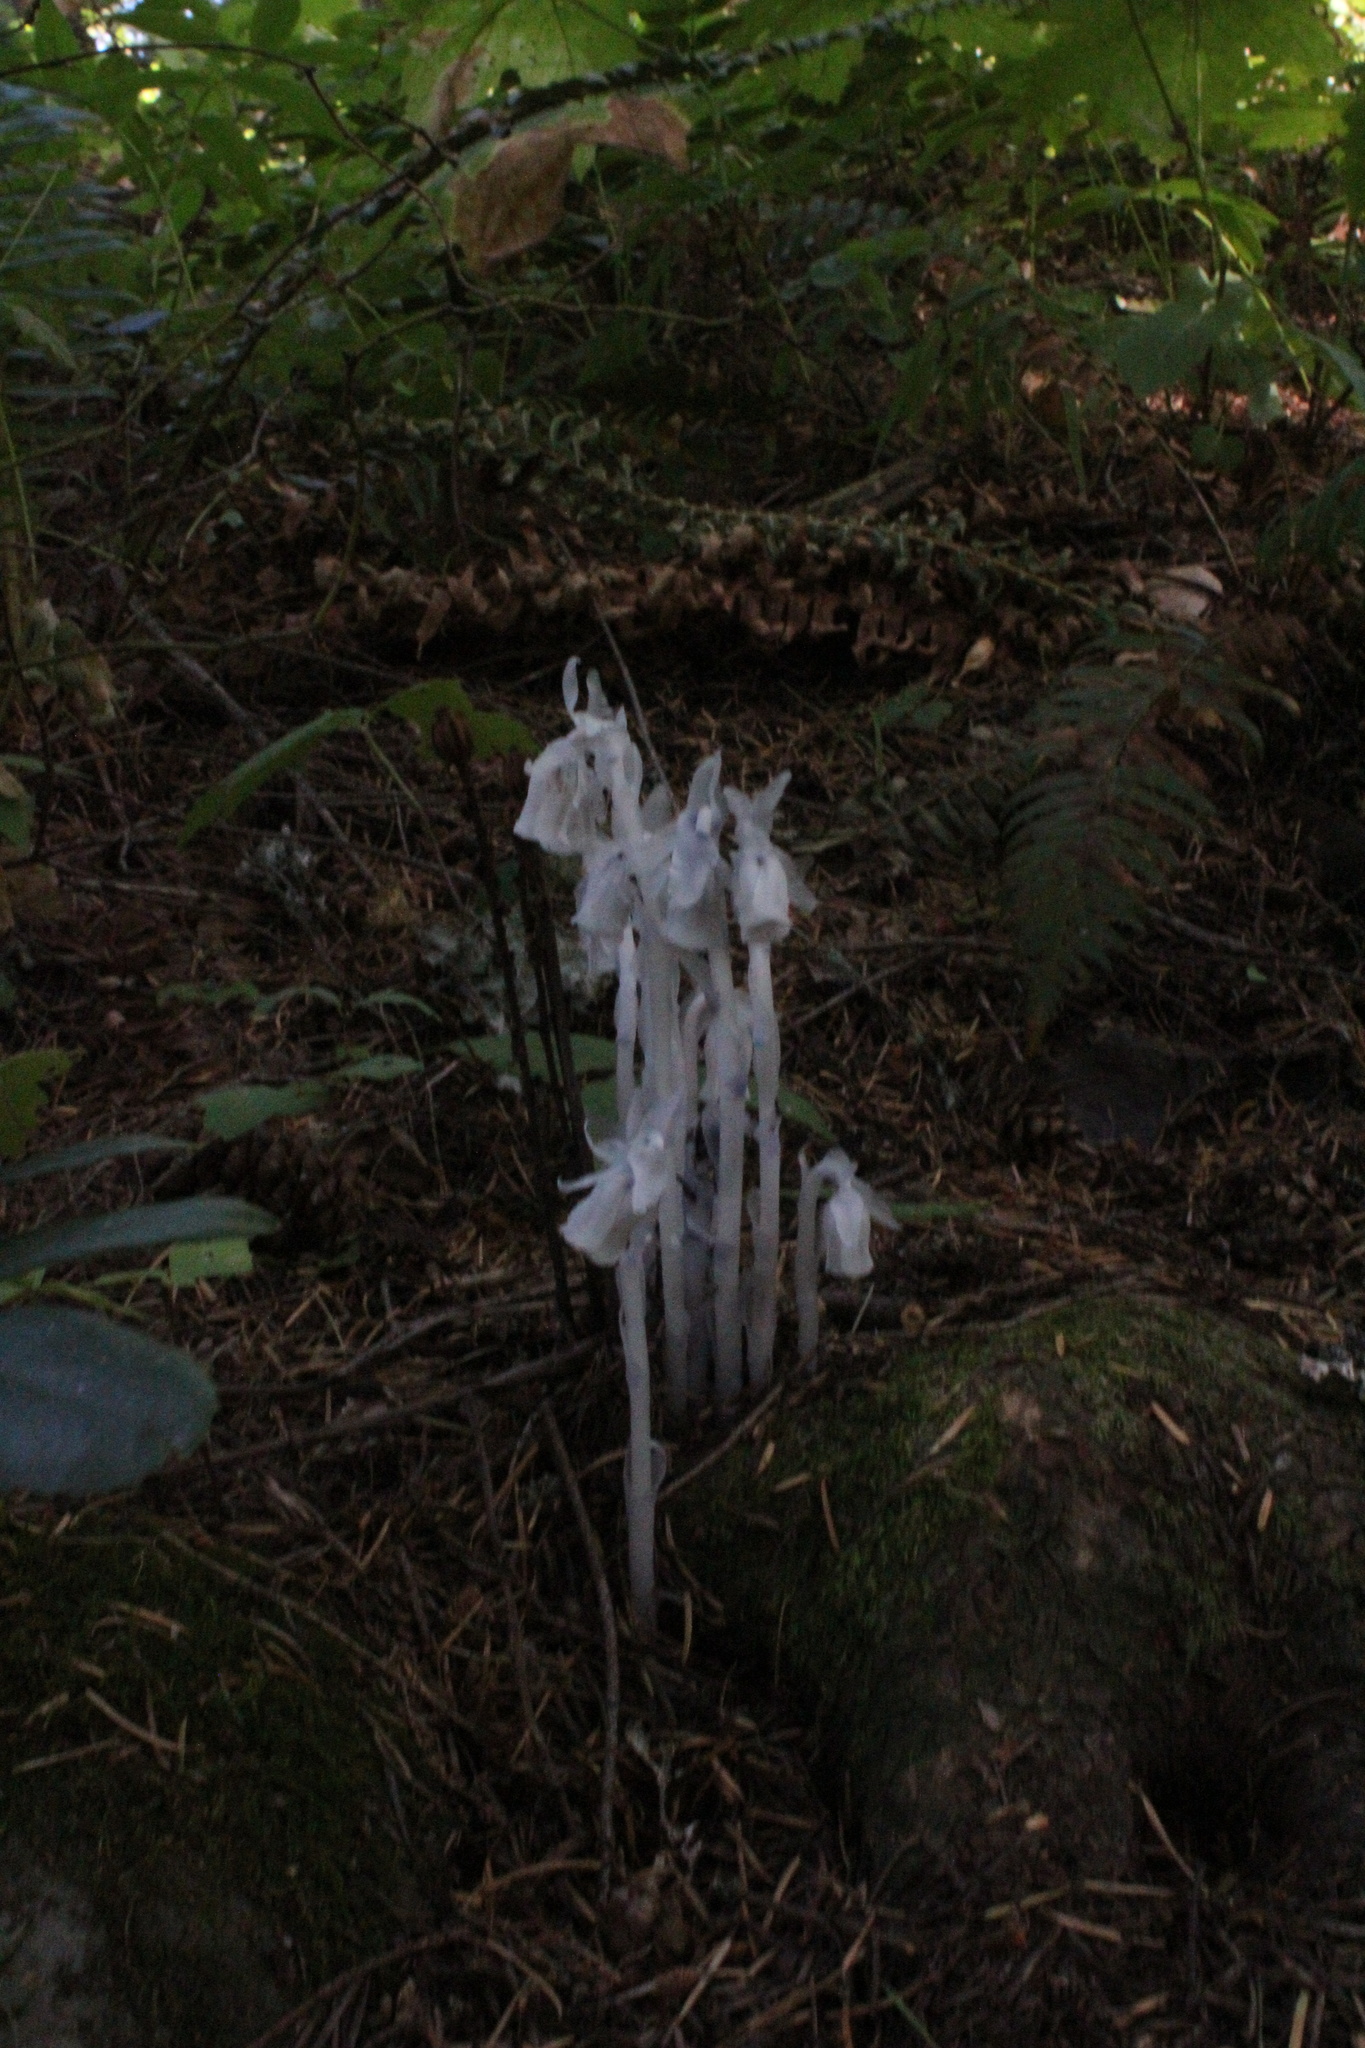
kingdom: Plantae
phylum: Tracheophyta
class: Magnoliopsida
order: Ericales
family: Ericaceae
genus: Monotropa
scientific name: Monotropa uniflora
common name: Convulsion root
